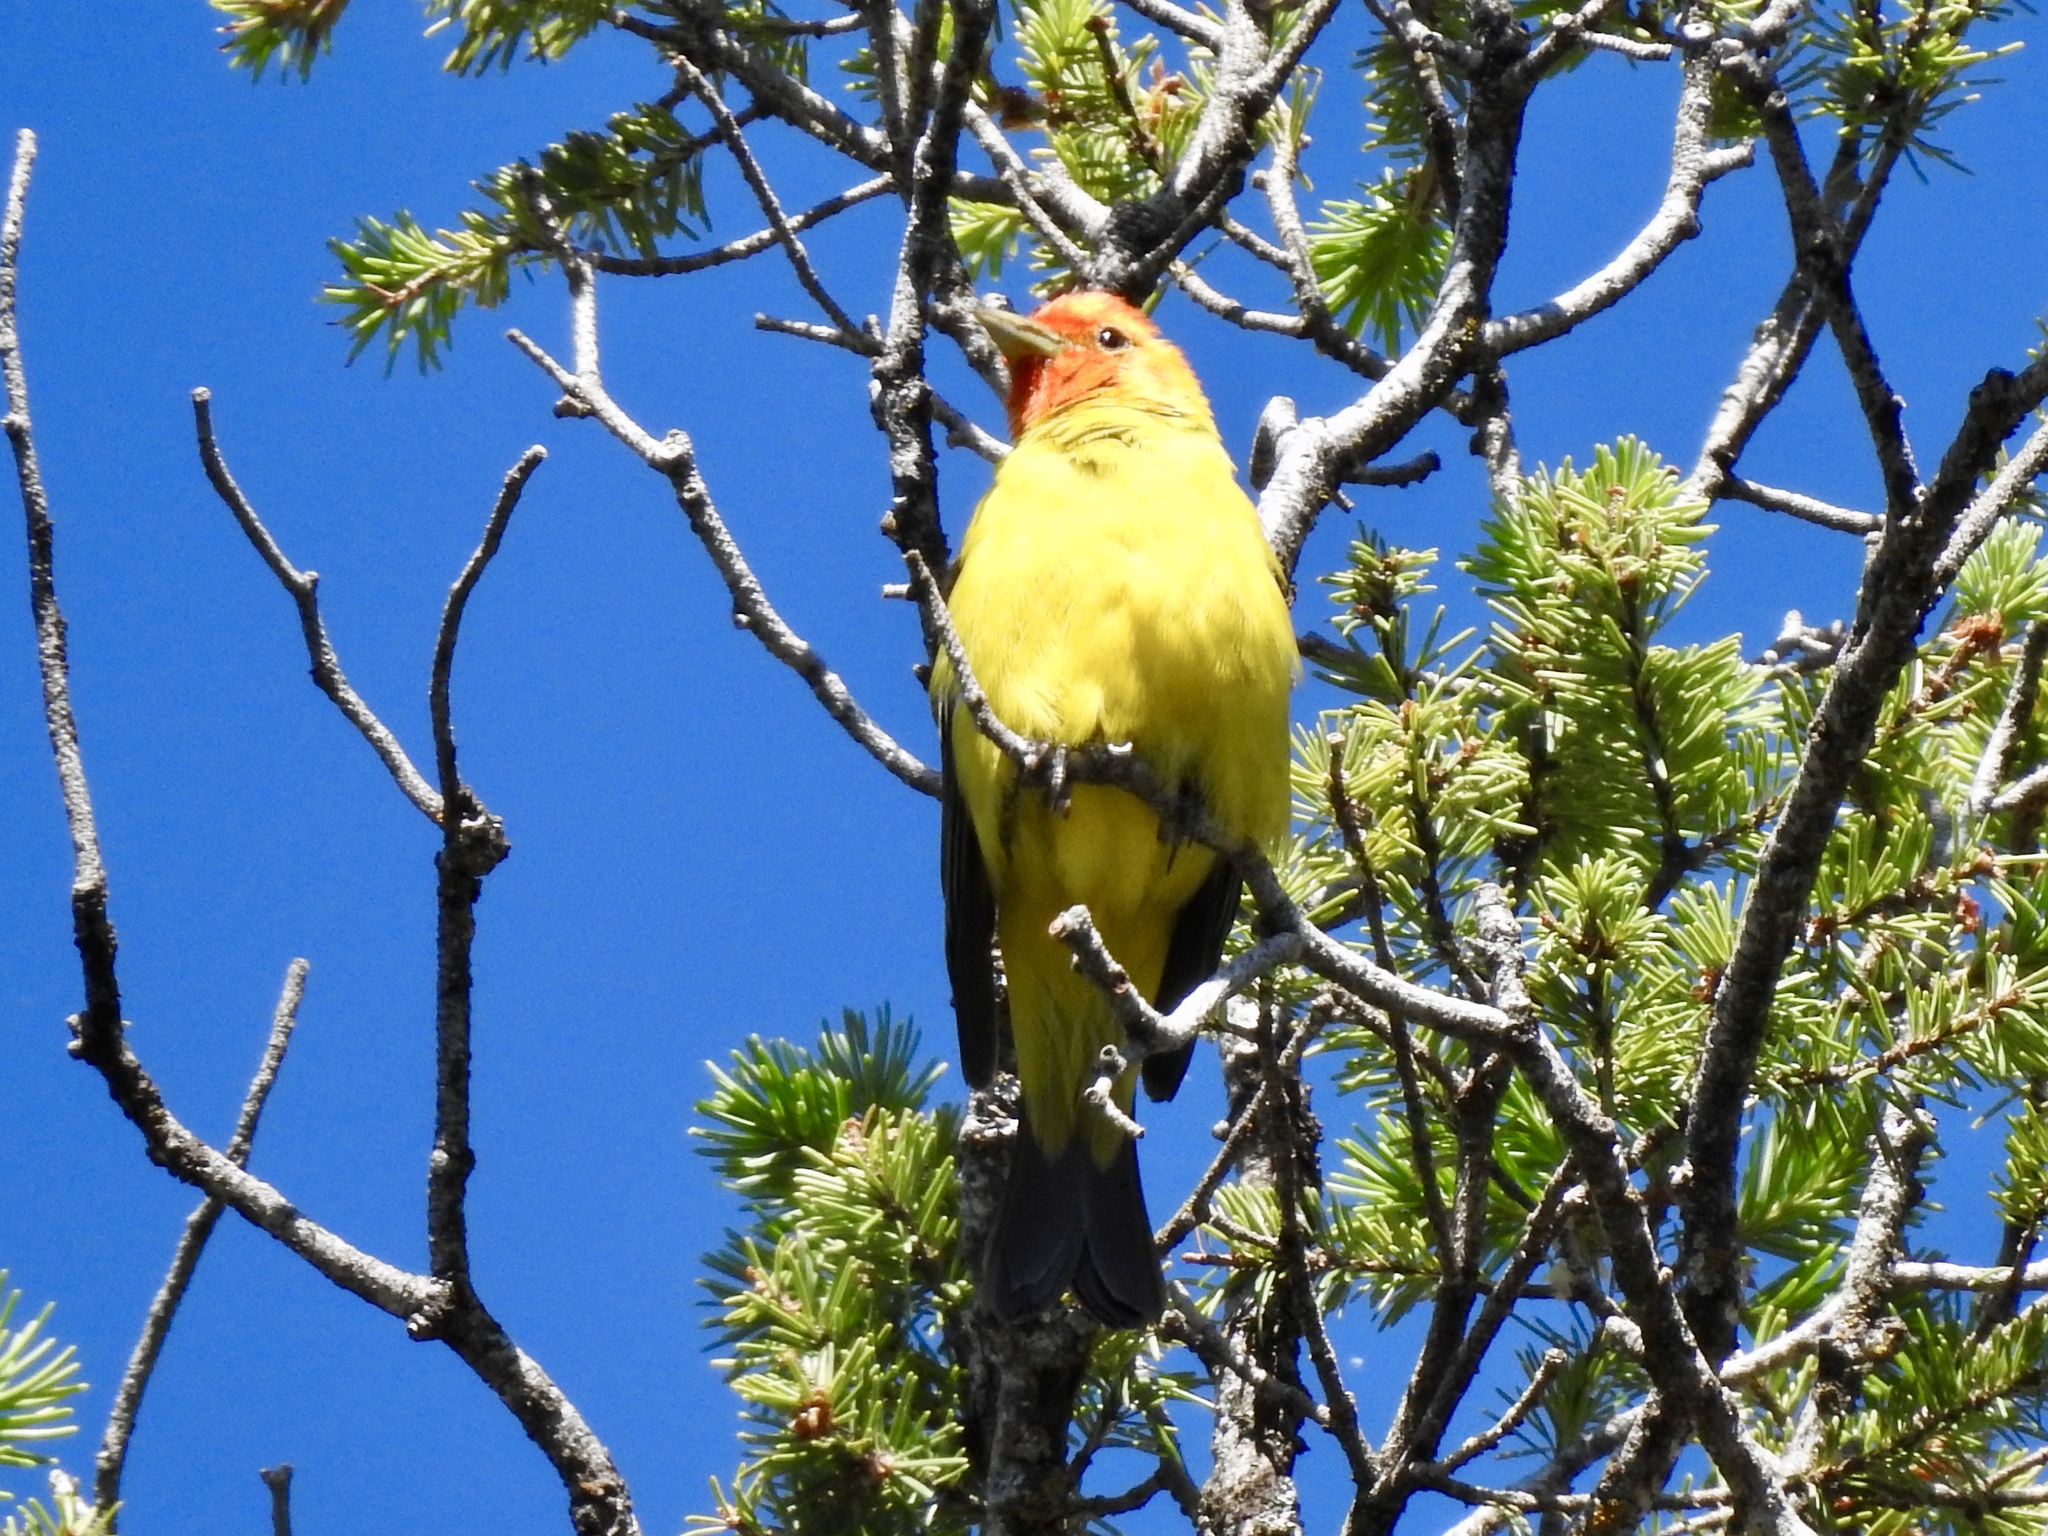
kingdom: Animalia
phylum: Chordata
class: Aves
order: Passeriformes
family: Cardinalidae
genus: Piranga
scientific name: Piranga ludoviciana
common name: Western tanager
